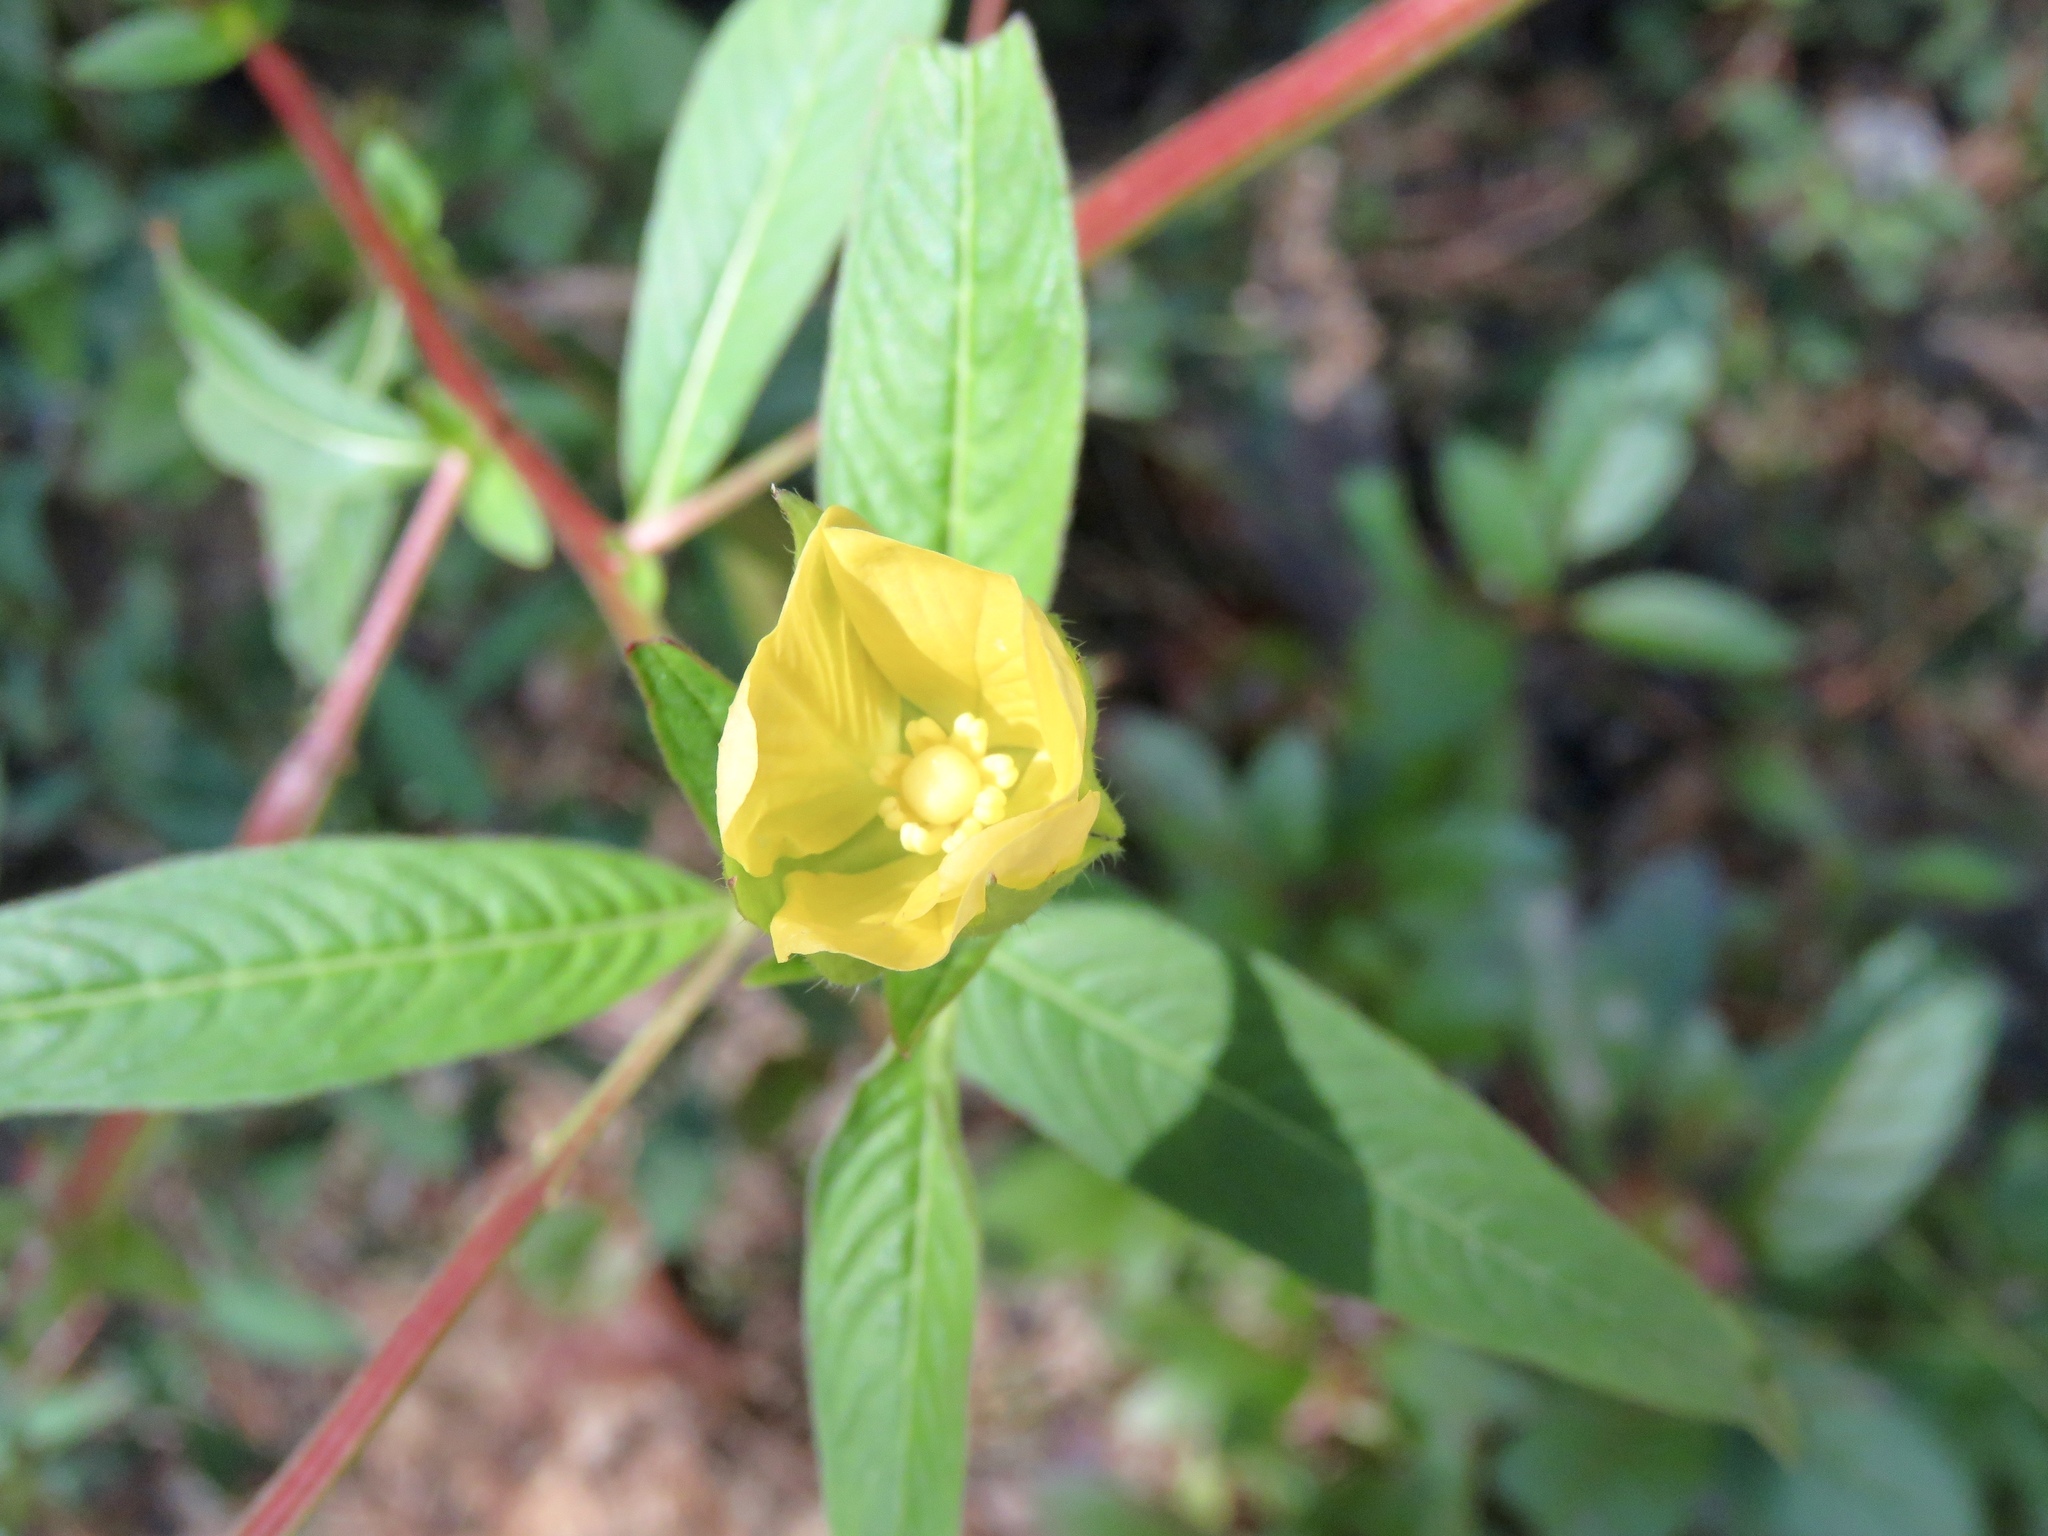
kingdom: Plantae
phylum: Tracheophyta
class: Magnoliopsida
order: Myrtales
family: Onagraceae
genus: Ludwigia
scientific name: Ludwigia octovalvis
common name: Water-primrose
